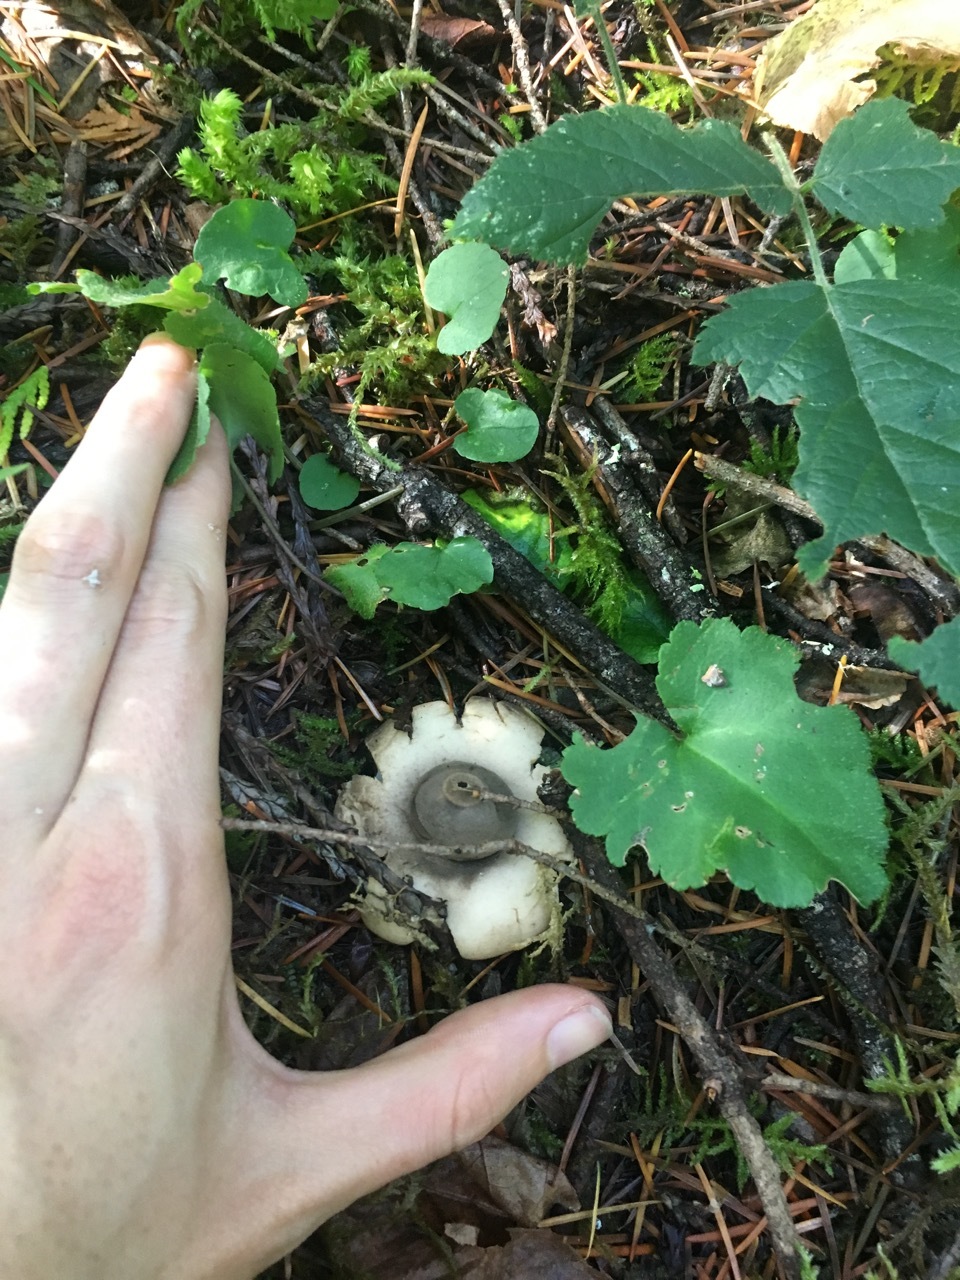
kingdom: Fungi
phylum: Basidiomycota
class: Agaricomycetes
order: Geastrales
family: Geastraceae
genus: Geastrum
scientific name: Geastrum saccatum
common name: Rounded earthstar
